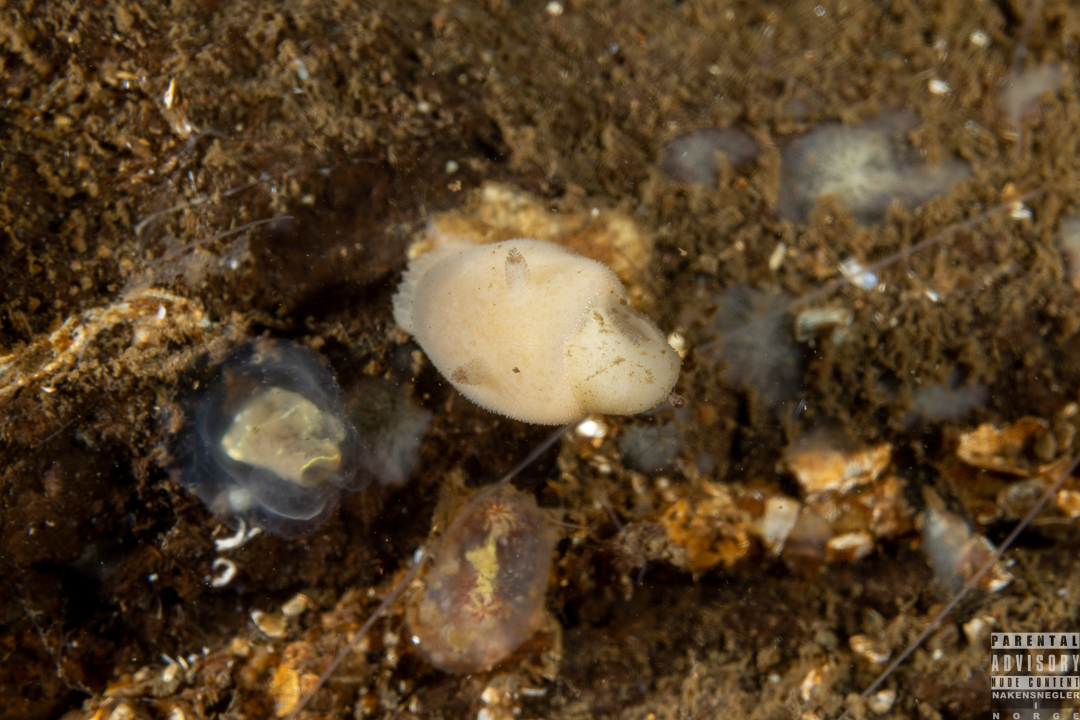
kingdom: Animalia
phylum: Mollusca
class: Gastropoda
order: Nudibranchia
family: Discodorididae
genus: Jorunna
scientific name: Jorunna tomentosa
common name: Grey sea slug
